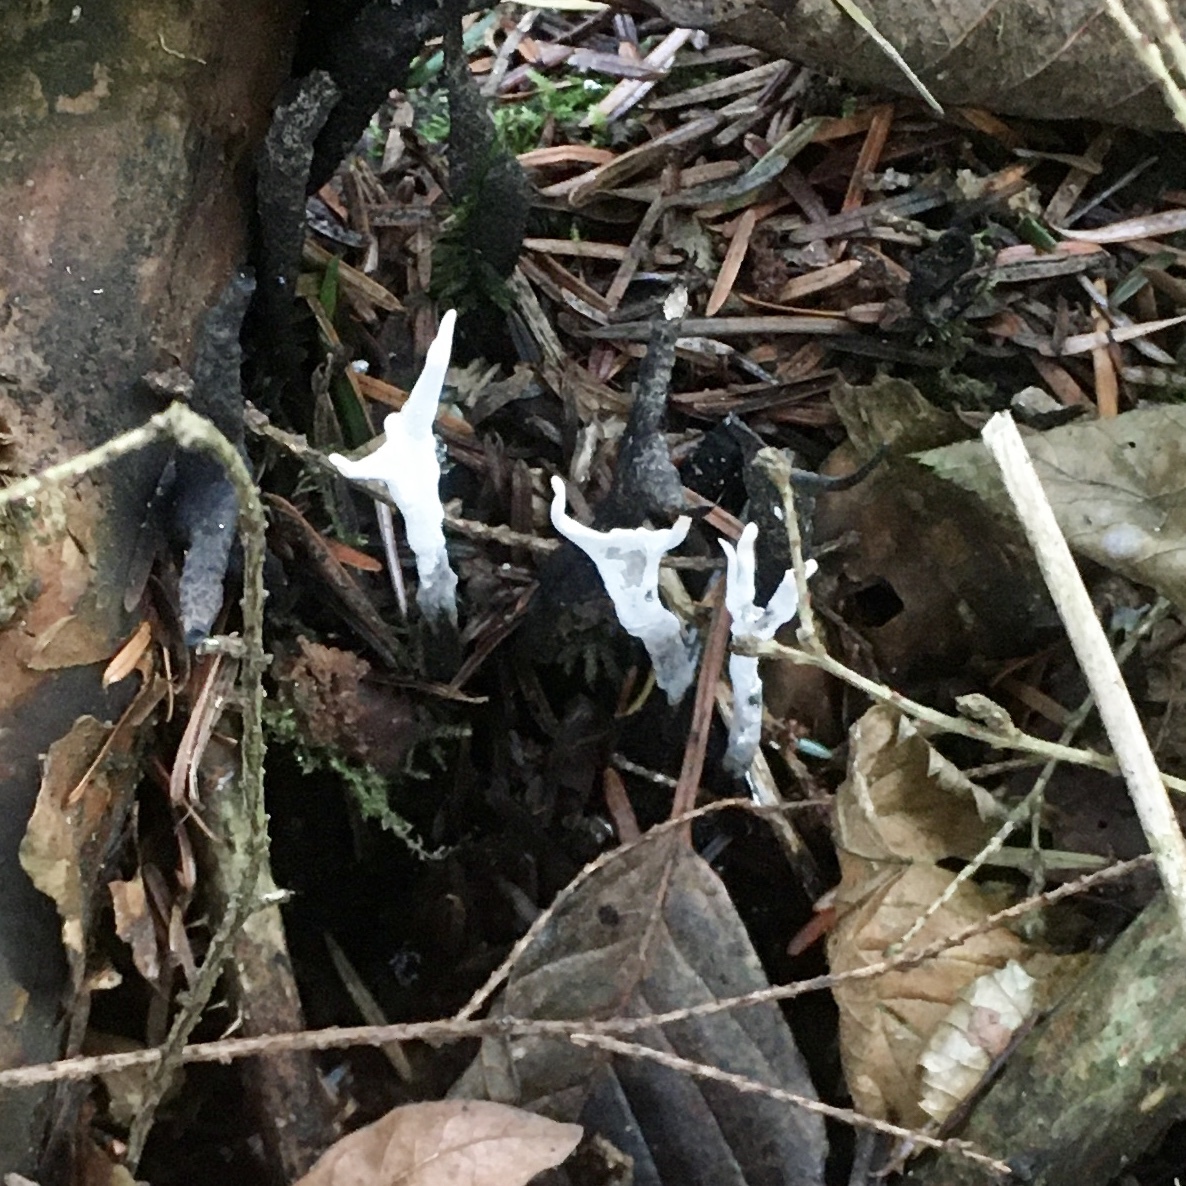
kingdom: Fungi
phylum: Ascomycota
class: Sordariomycetes
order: Xylariales
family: Xylariaceae
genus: Xylaria
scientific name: Xylaria hypoxylon
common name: Candle-snuff fungus
